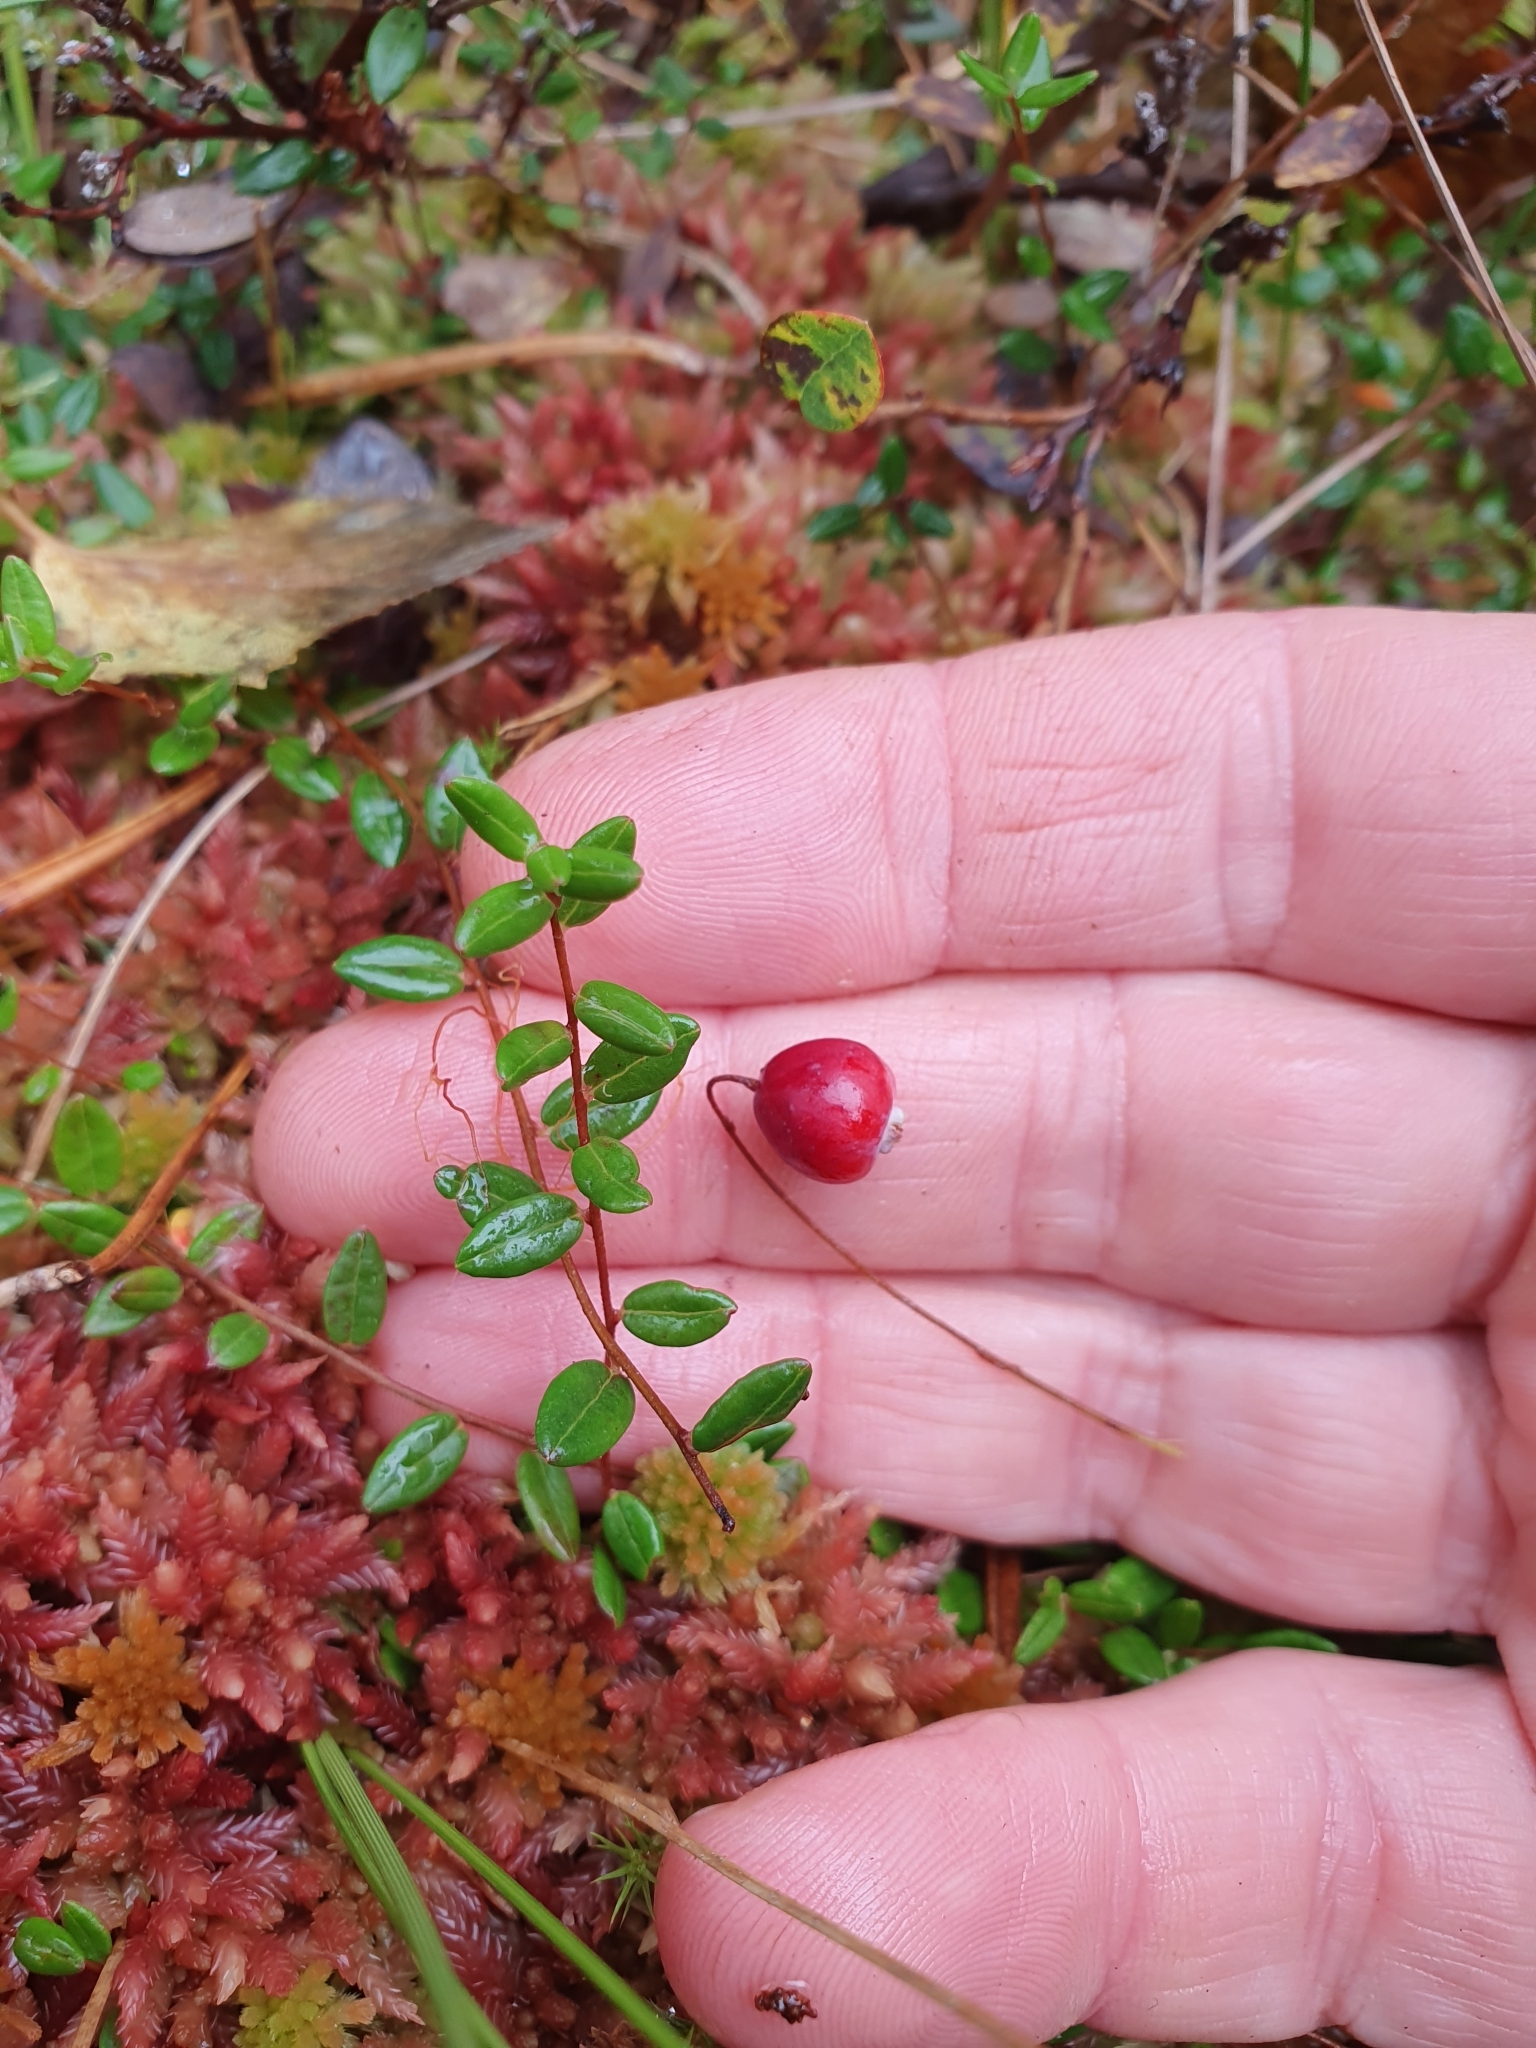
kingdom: Plantae
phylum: Tracheophyta
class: Magnoliopsida
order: Ericales
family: Ericaceae
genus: Vaccinium
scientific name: Vaccinium oxycoccos
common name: Cranberry
